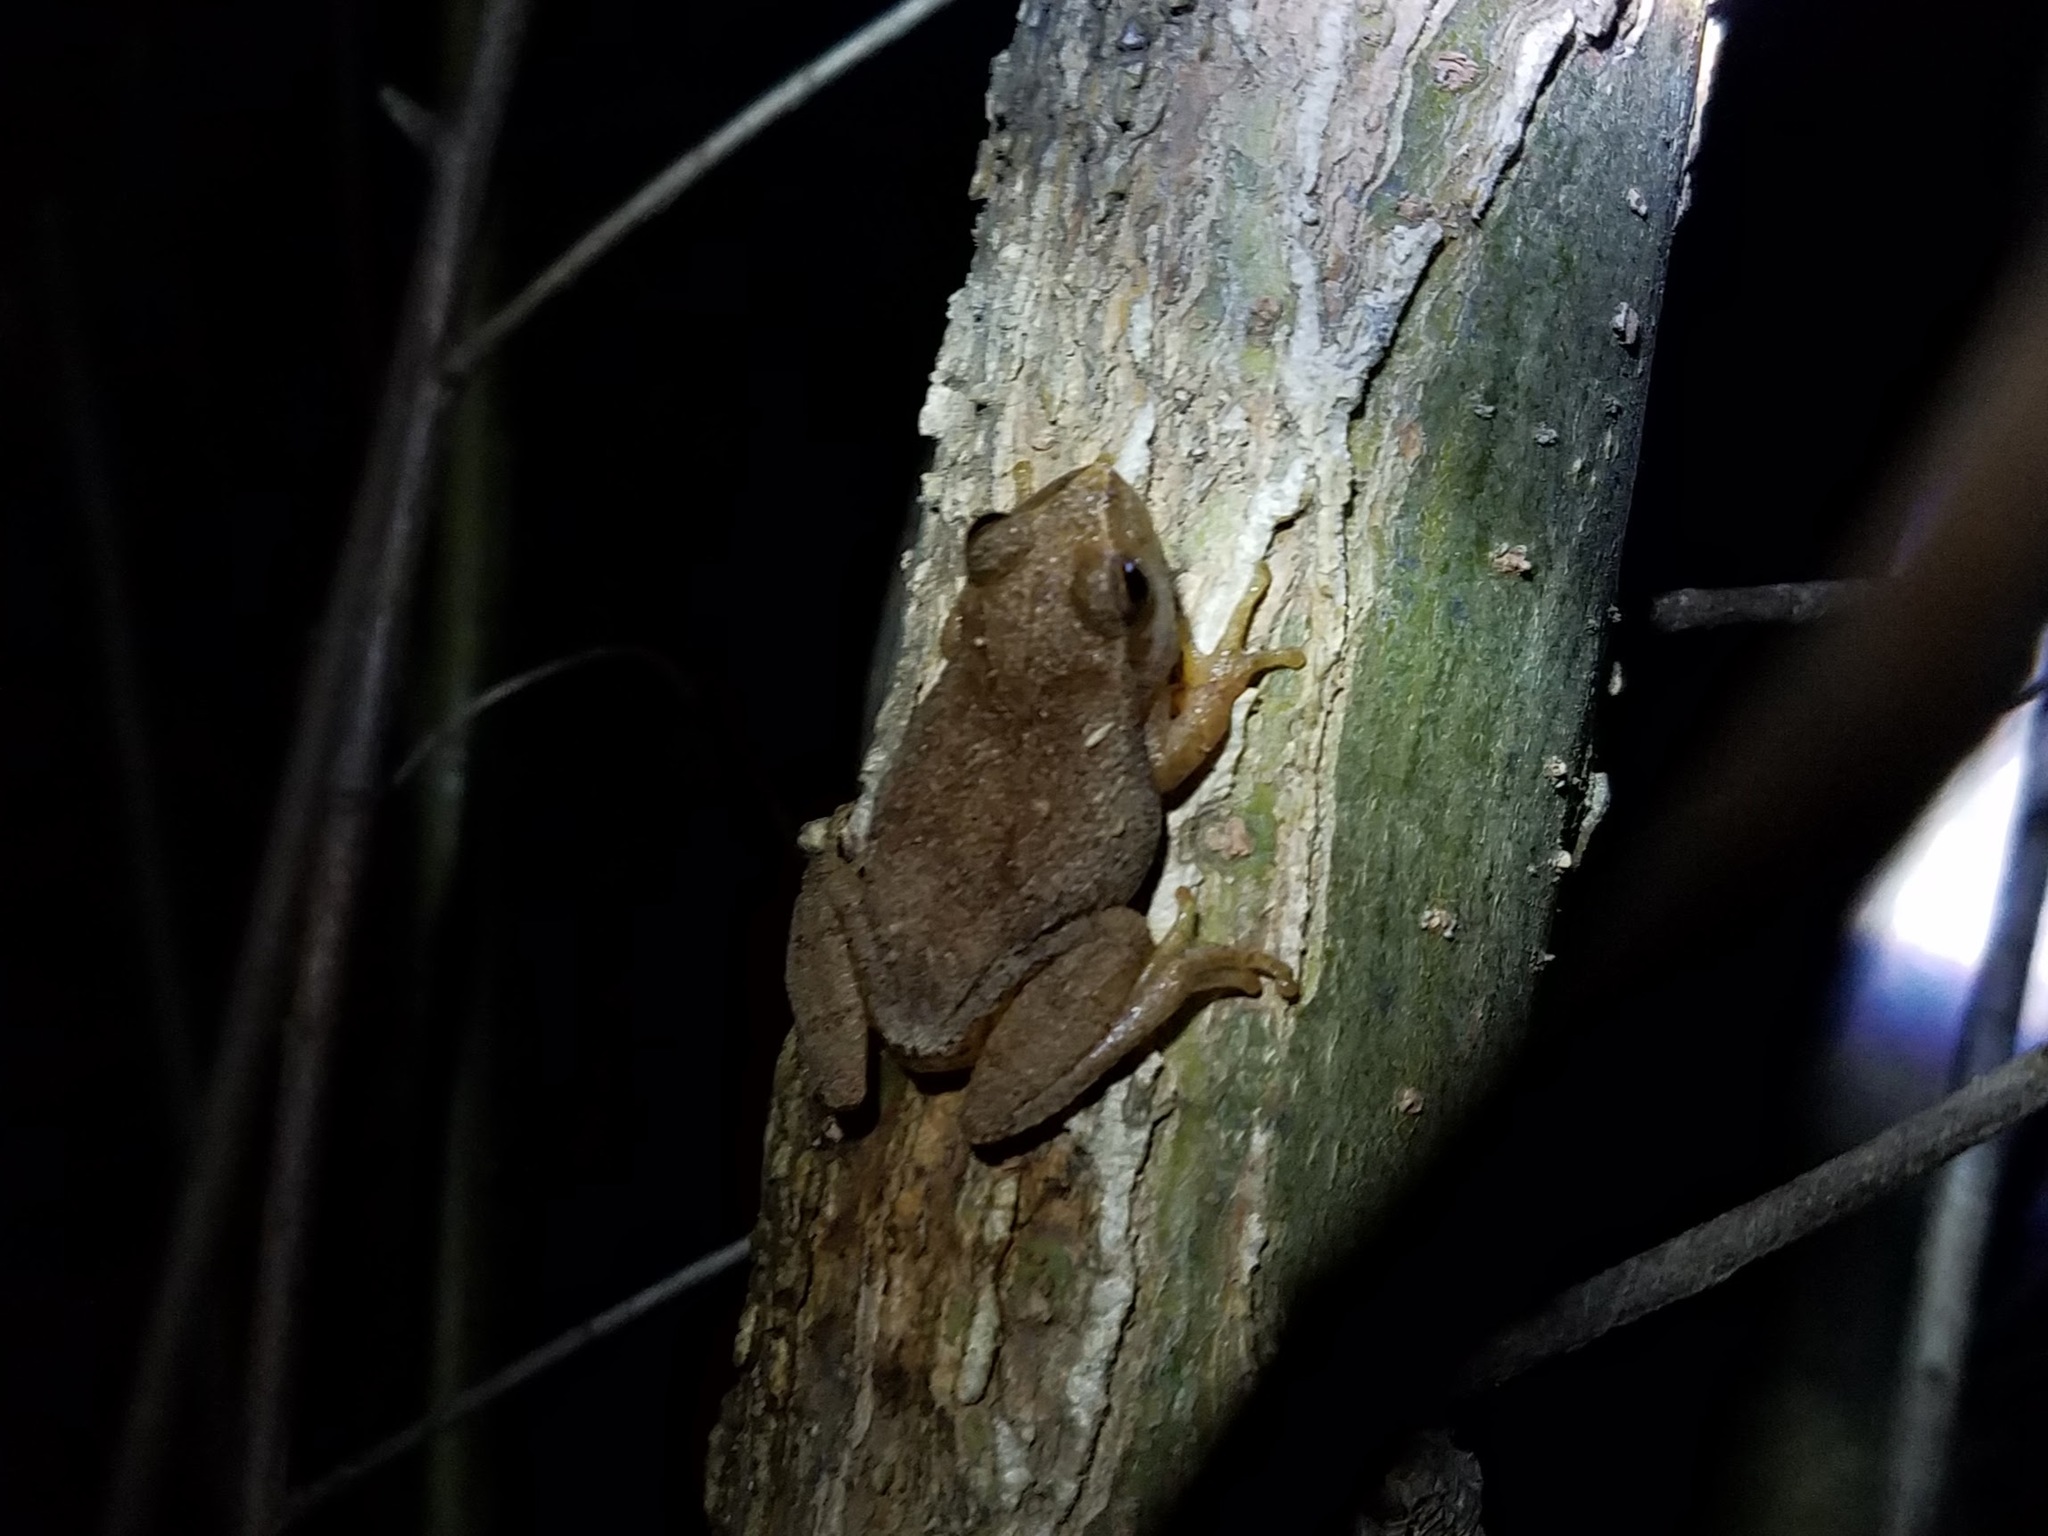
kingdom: Animalia
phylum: Chordata
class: Amphibia
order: Anura
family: Hylidae
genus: Pseudacris
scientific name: Pseudacris crucifer
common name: Spring peeper
